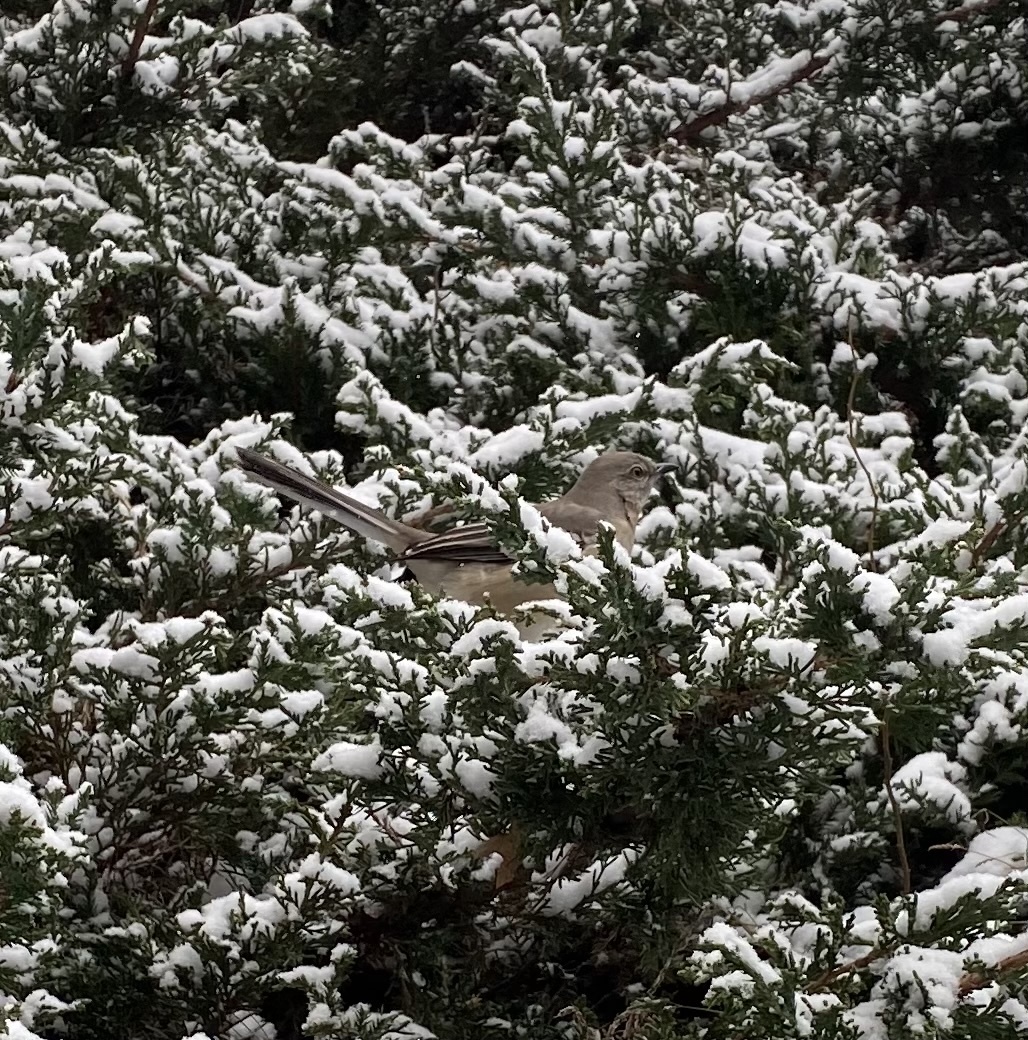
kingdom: Animalia
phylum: Chordata
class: Aves
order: Passeriformes
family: Mimidae
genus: Mimus
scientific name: Mimus polyglottos
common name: Northern mockingbird
